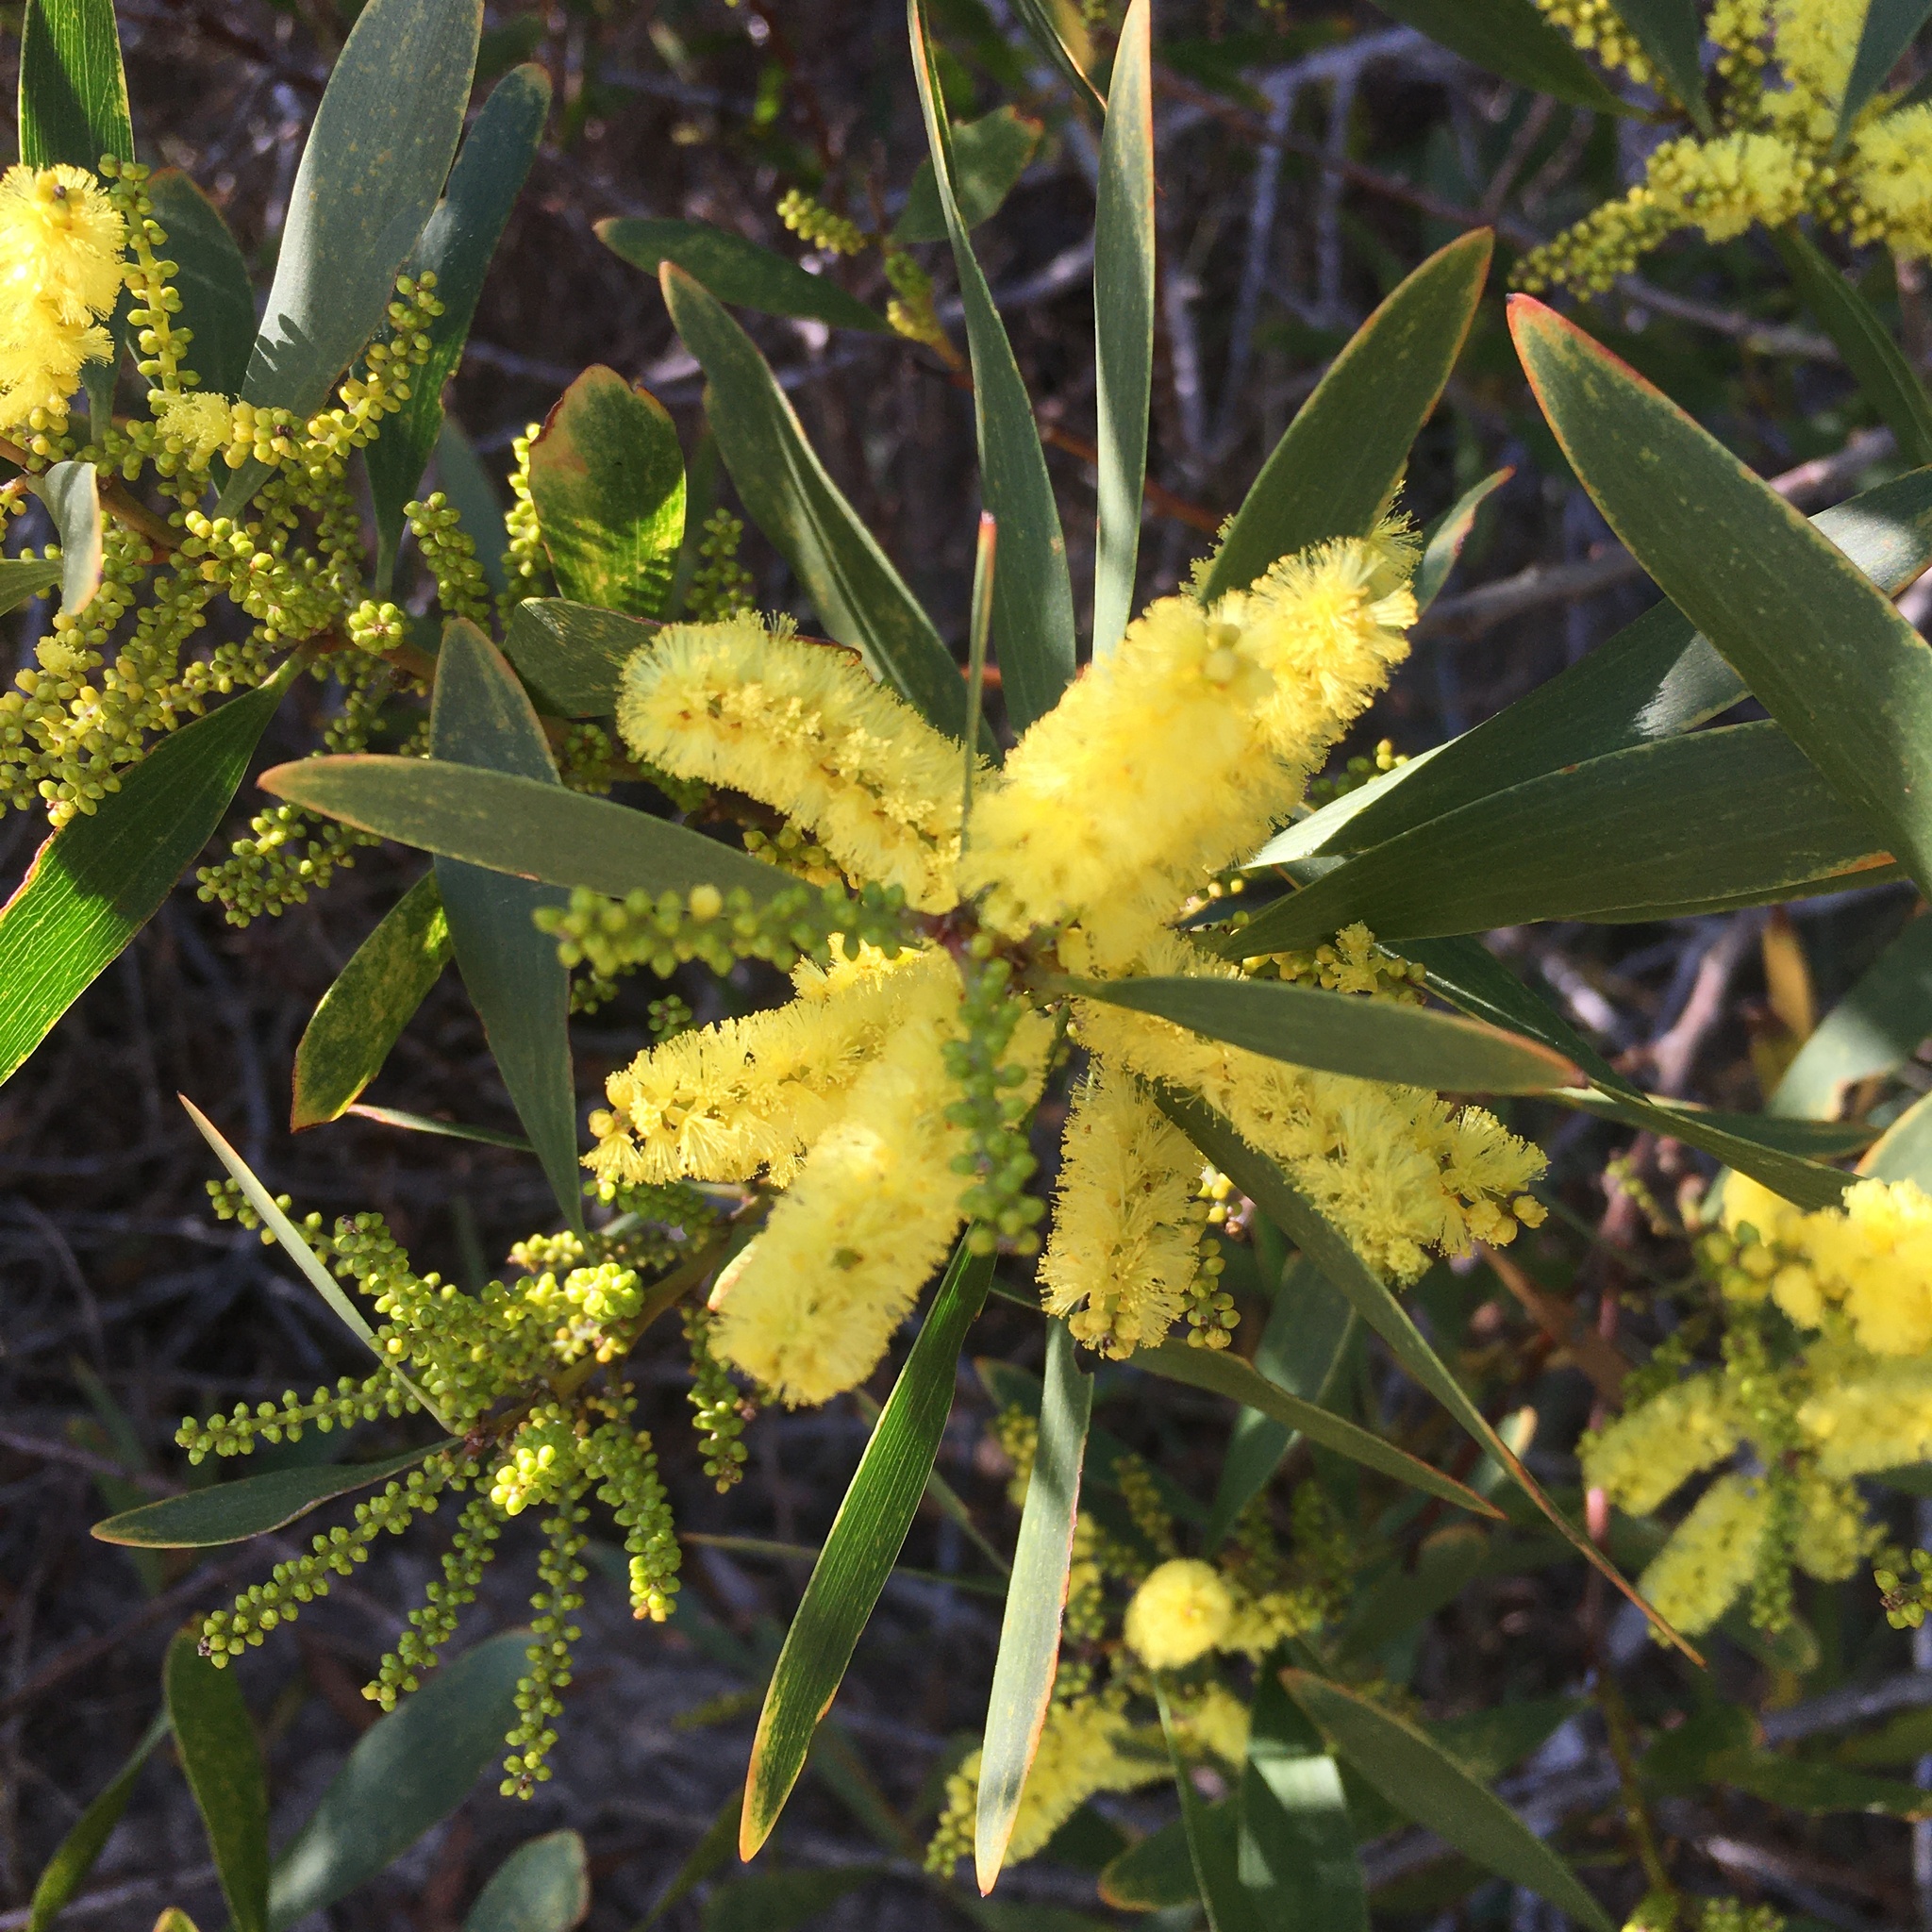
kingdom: Plantae
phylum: Tracheophyta
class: Magnoliopsida
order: Fabales
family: Fabaceae
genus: Acacia
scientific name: Acacia longifolia
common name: Sydney golden wattle
